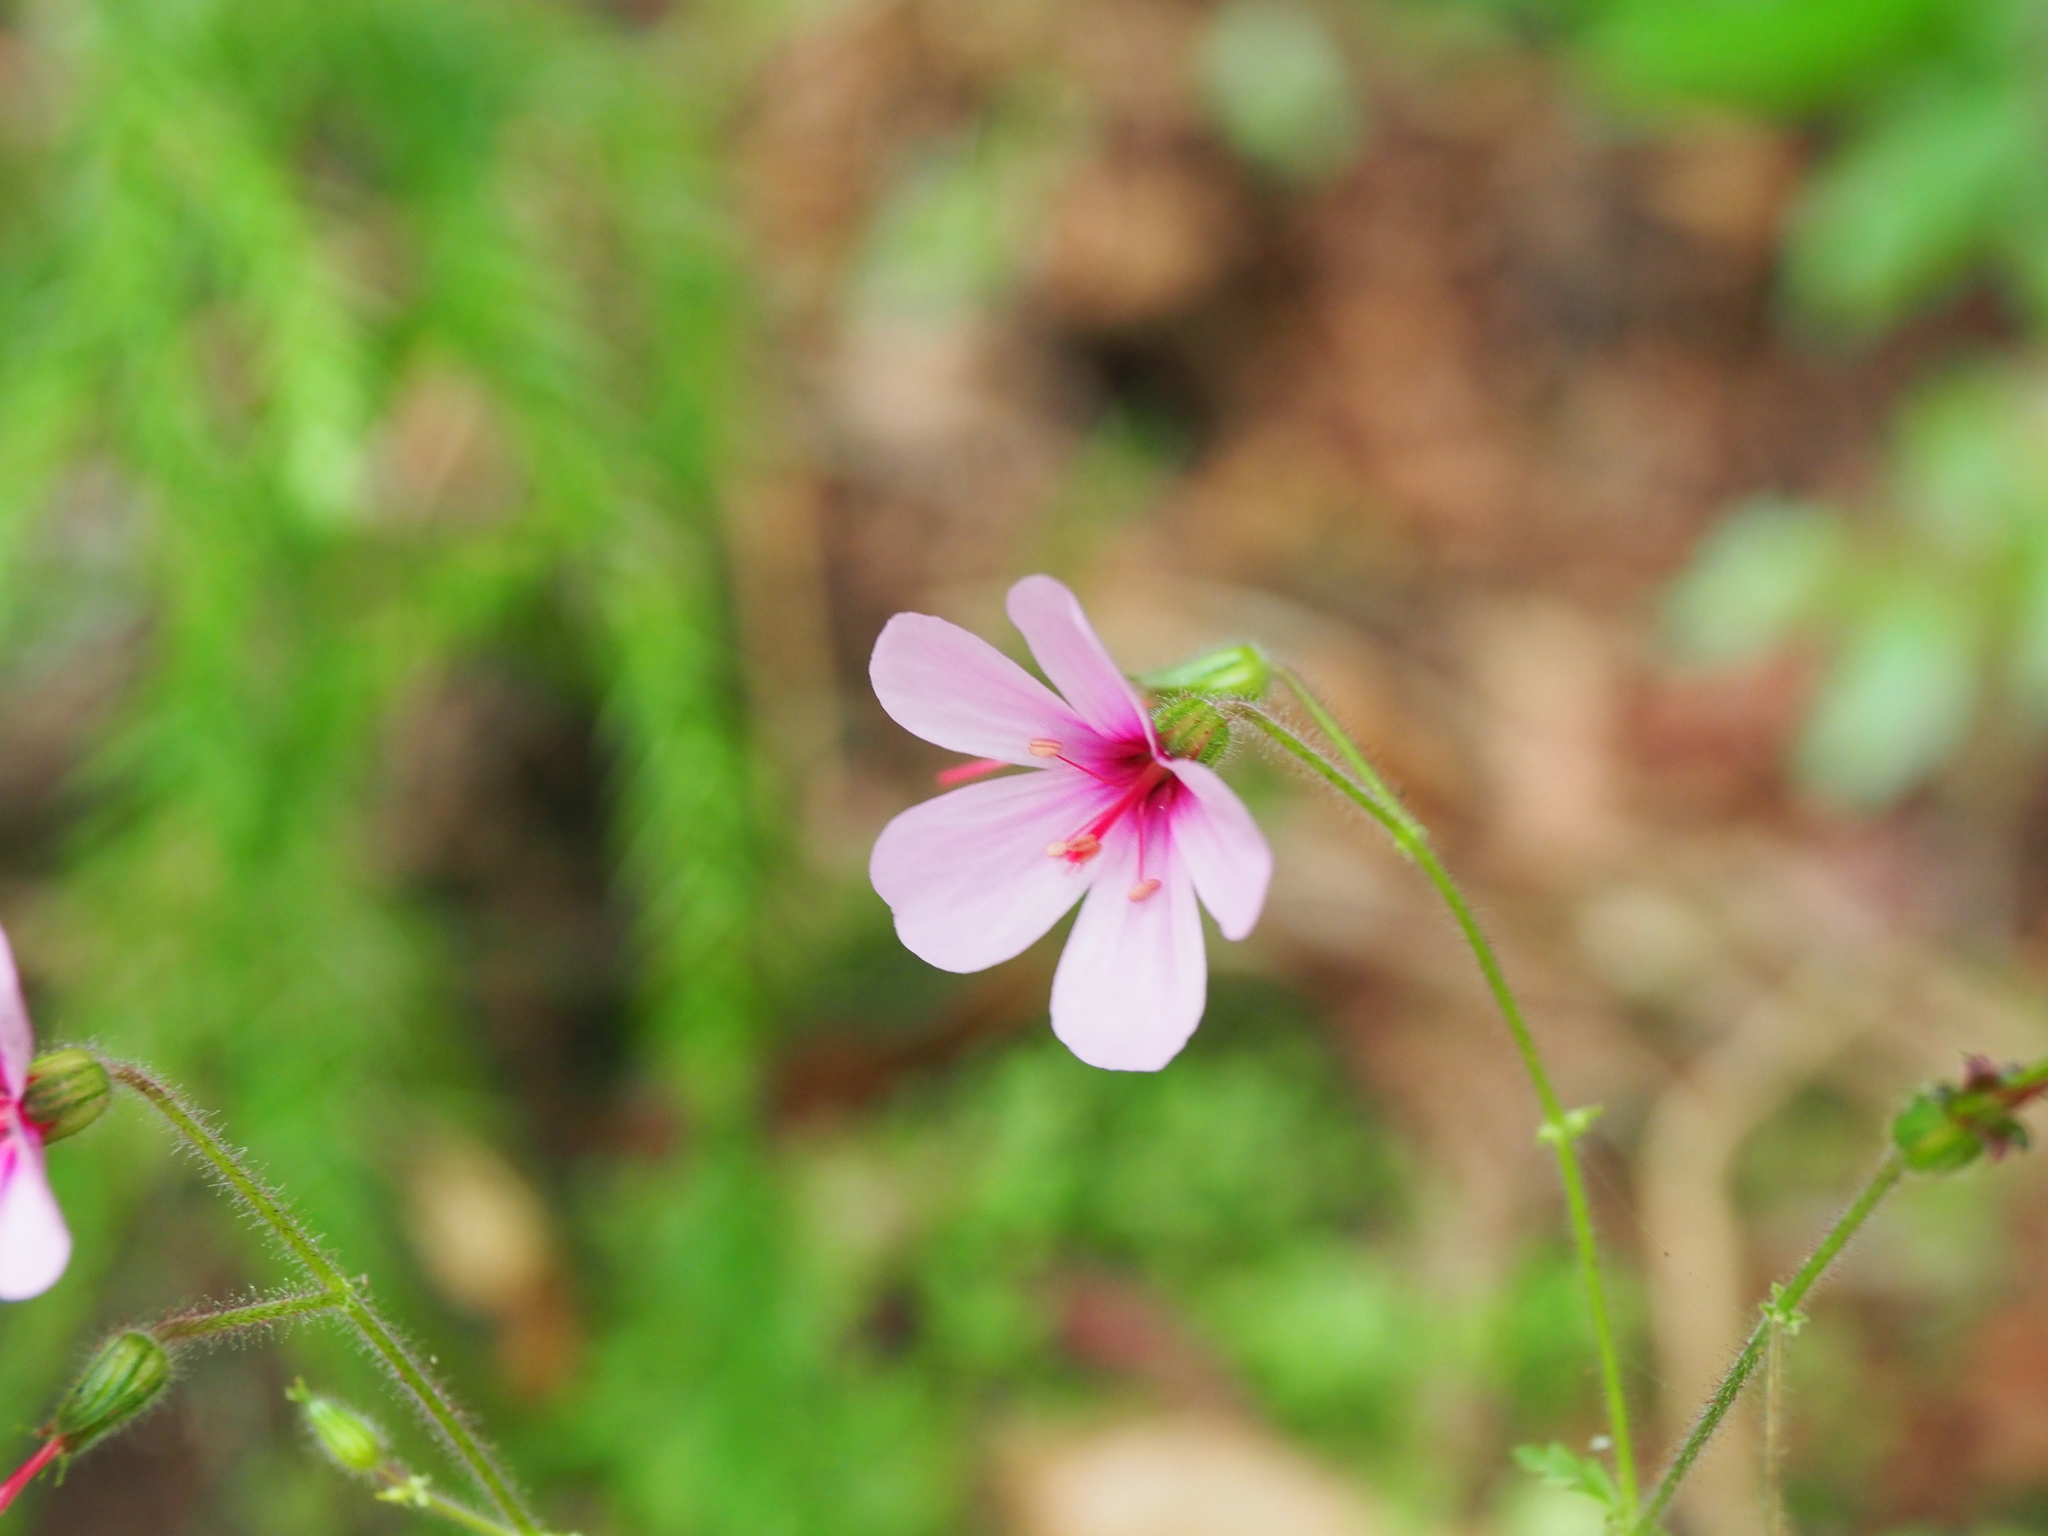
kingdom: Plantae
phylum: Tracheophyta
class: Magnoliopsida
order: Geraniales
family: Geraniaceae
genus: Geranium
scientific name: Geranium yeoi
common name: Greater herb robert
